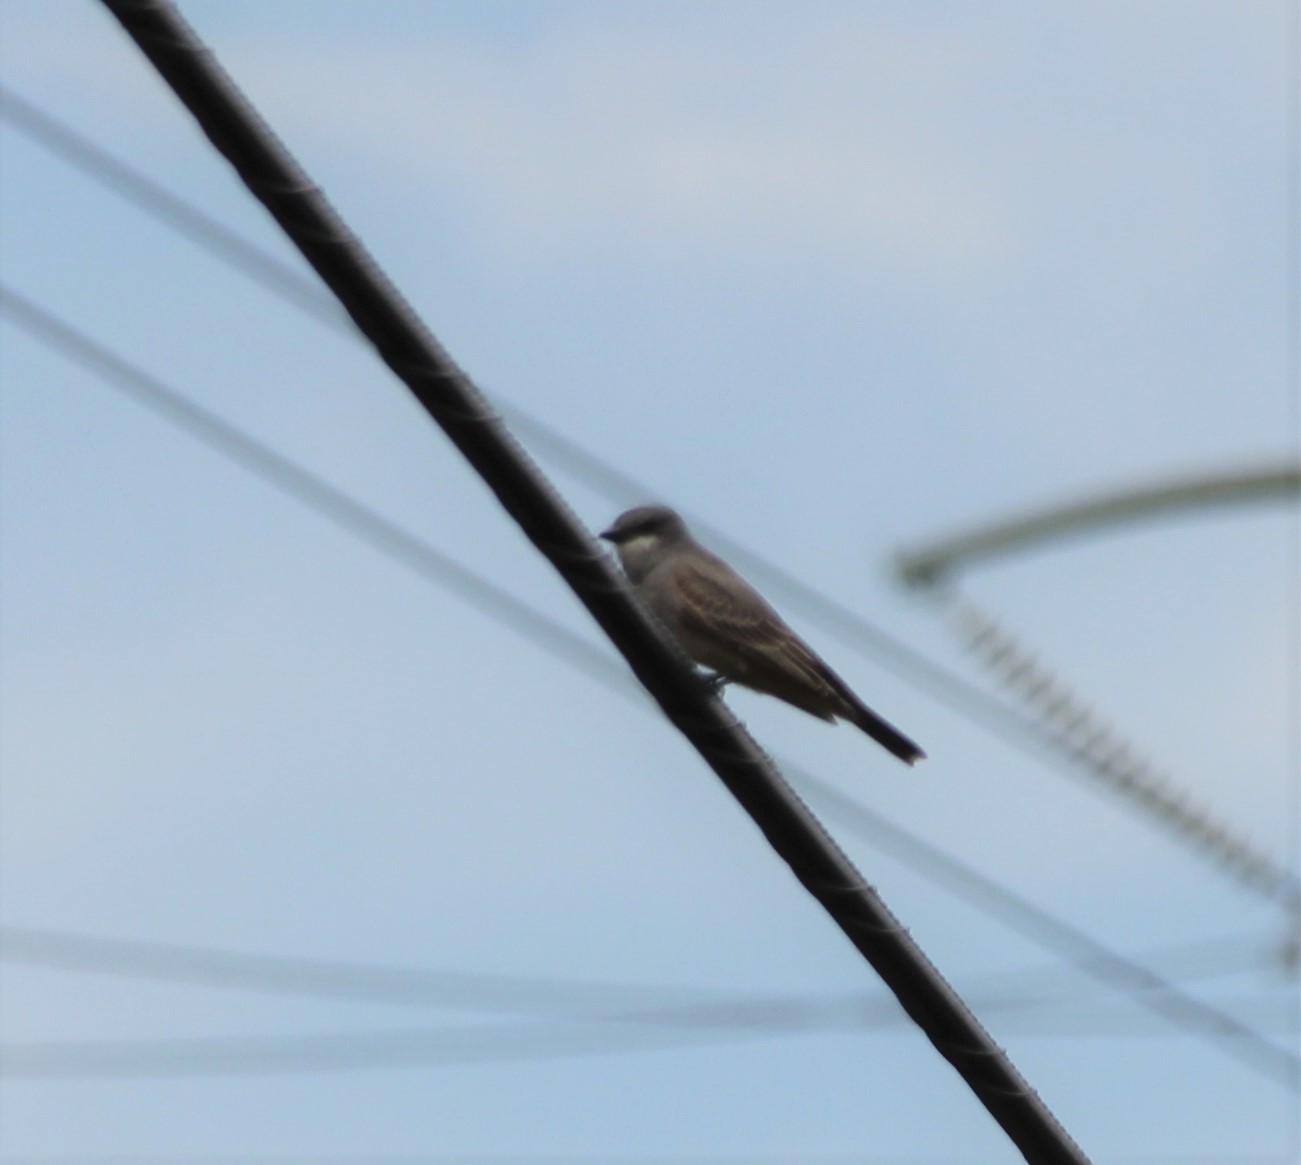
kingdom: Animalia
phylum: Chordata
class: Aves
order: Passeriformes
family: Tyrannidae
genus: Tyrannus
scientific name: Tyrannus vociferans
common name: Cassin's kingbird
